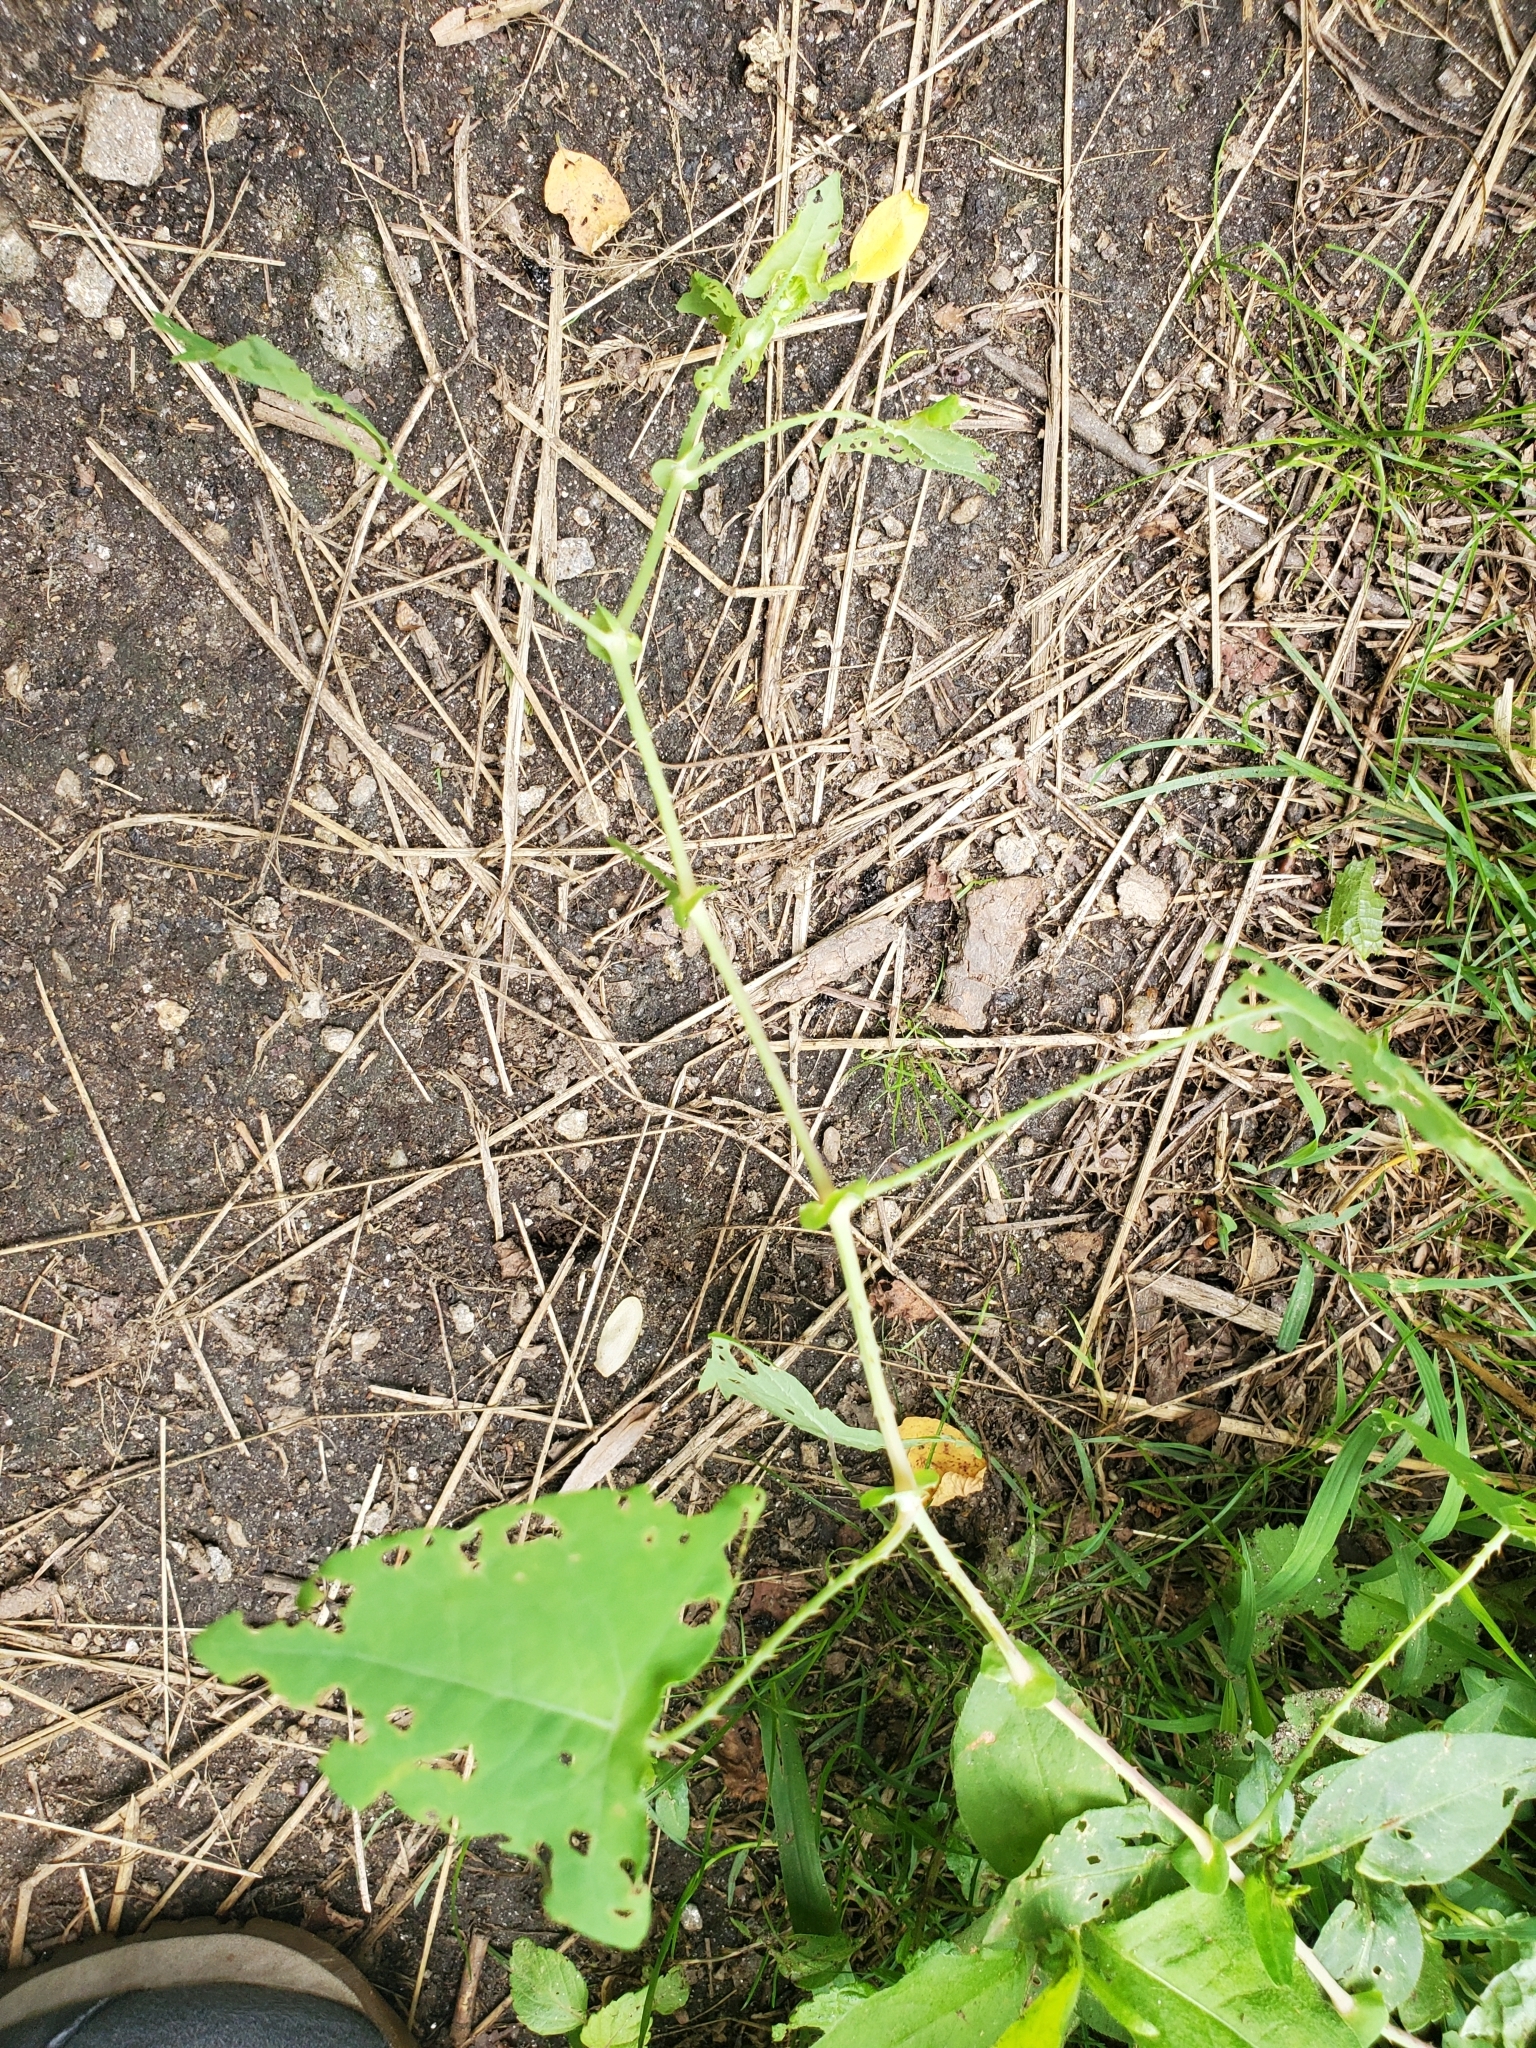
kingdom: Plantae
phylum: Tracheophyta
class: Magnoliopsida
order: Caryophyllales
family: Polygonaceae
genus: Persicaria
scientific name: Persicaria perfoliata
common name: Asiatic tearthumb
